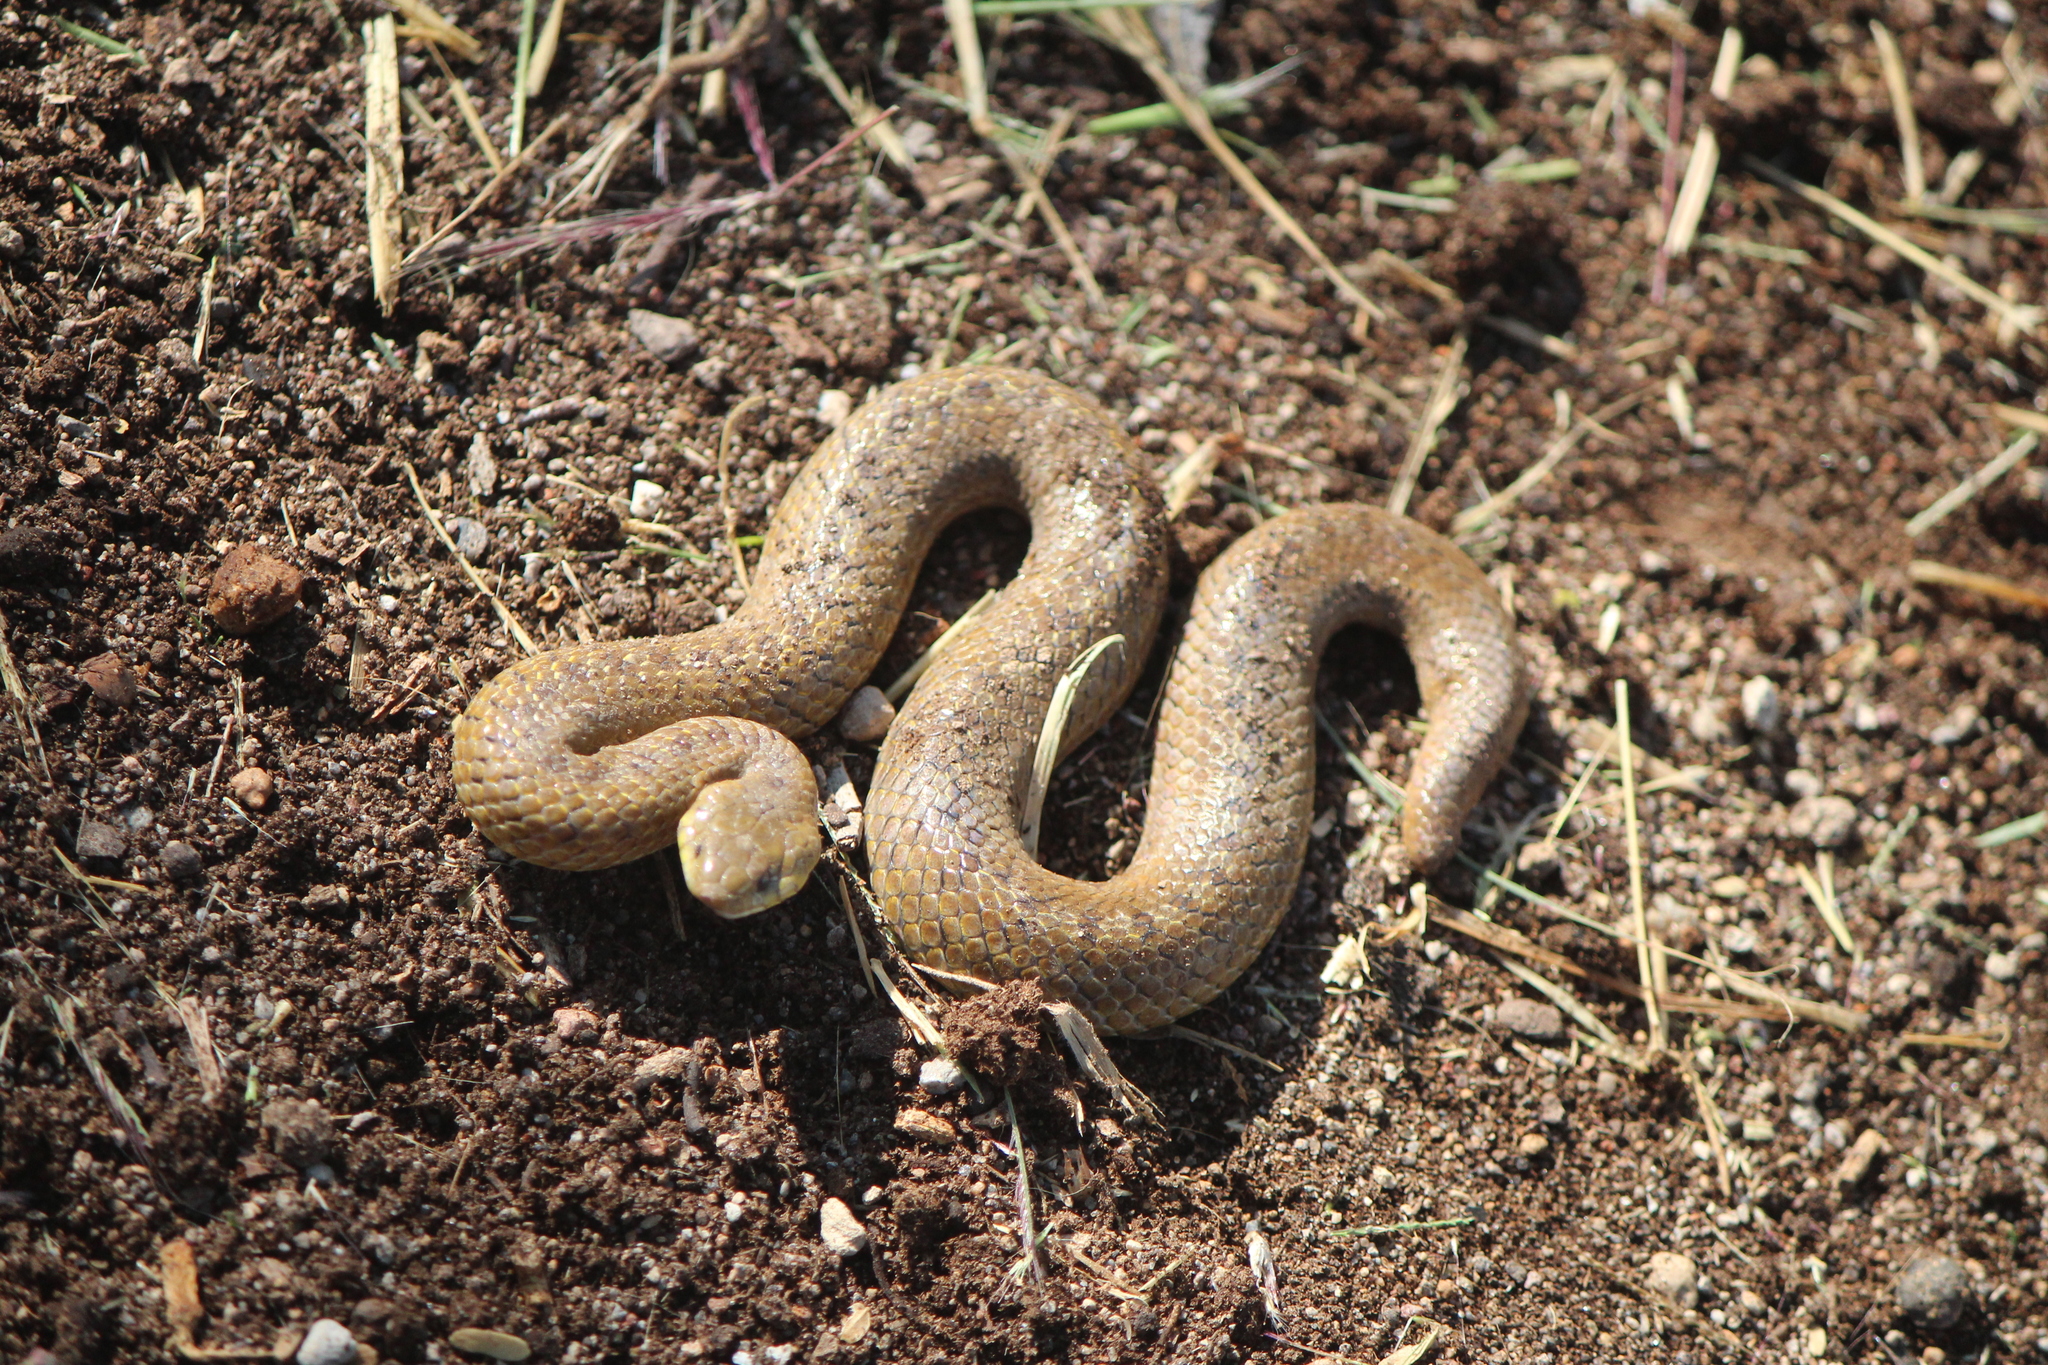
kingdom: Animalia
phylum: Chordata
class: Squamata
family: Colubridae
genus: Conopsis
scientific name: Conopsis nasus
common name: Largenose earth snake
